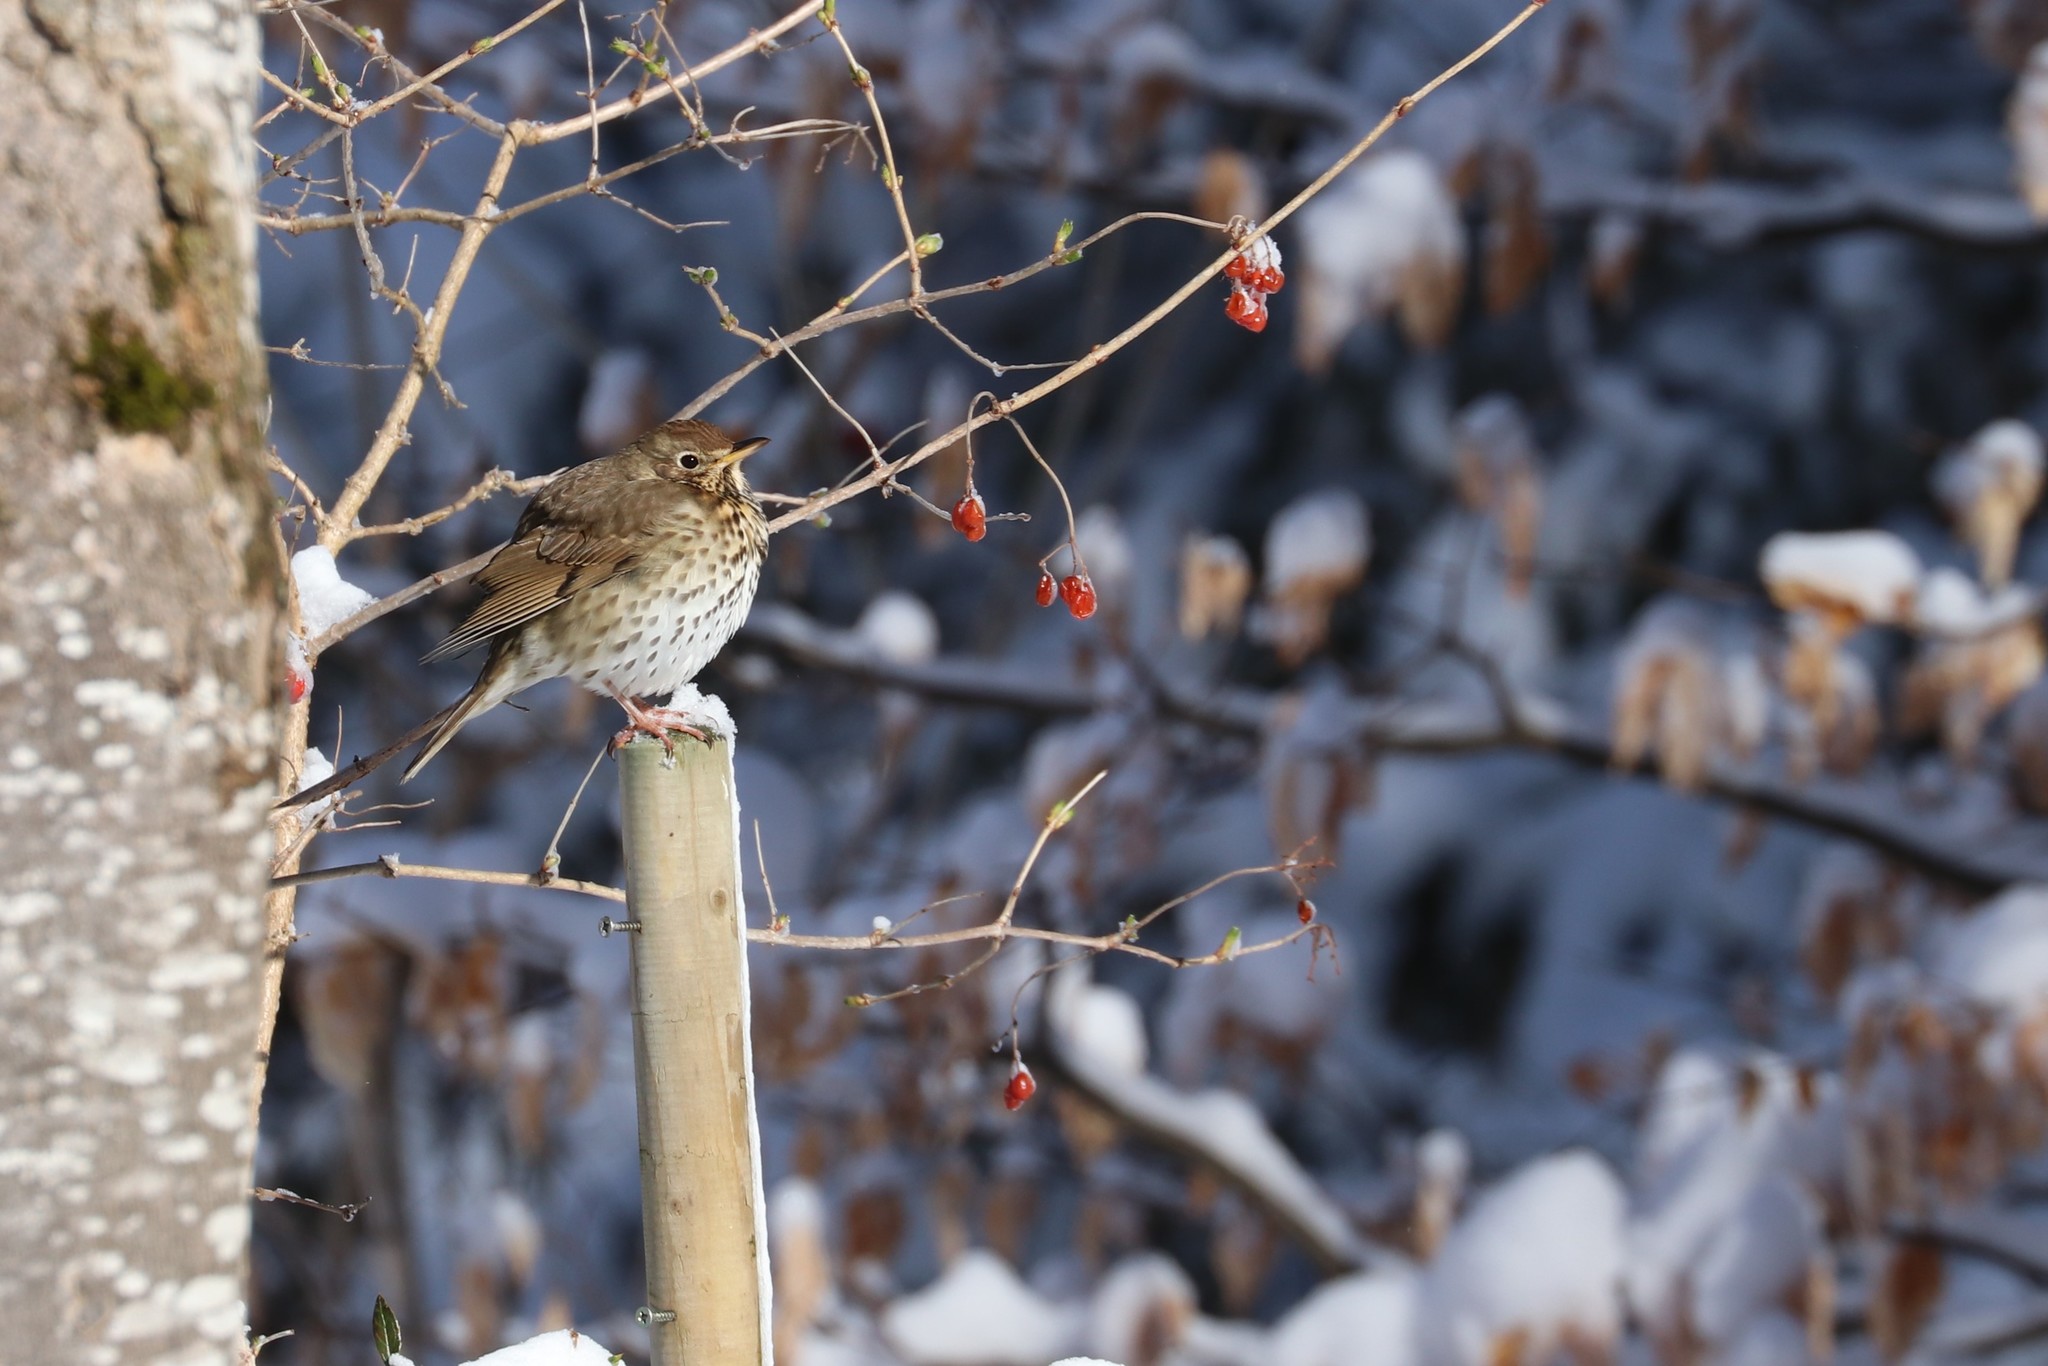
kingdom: Animalia
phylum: Chordata
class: Aves
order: Passeriformes
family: Turdidae
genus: Turdus
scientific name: Turdus philomelos
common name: Song thrush
